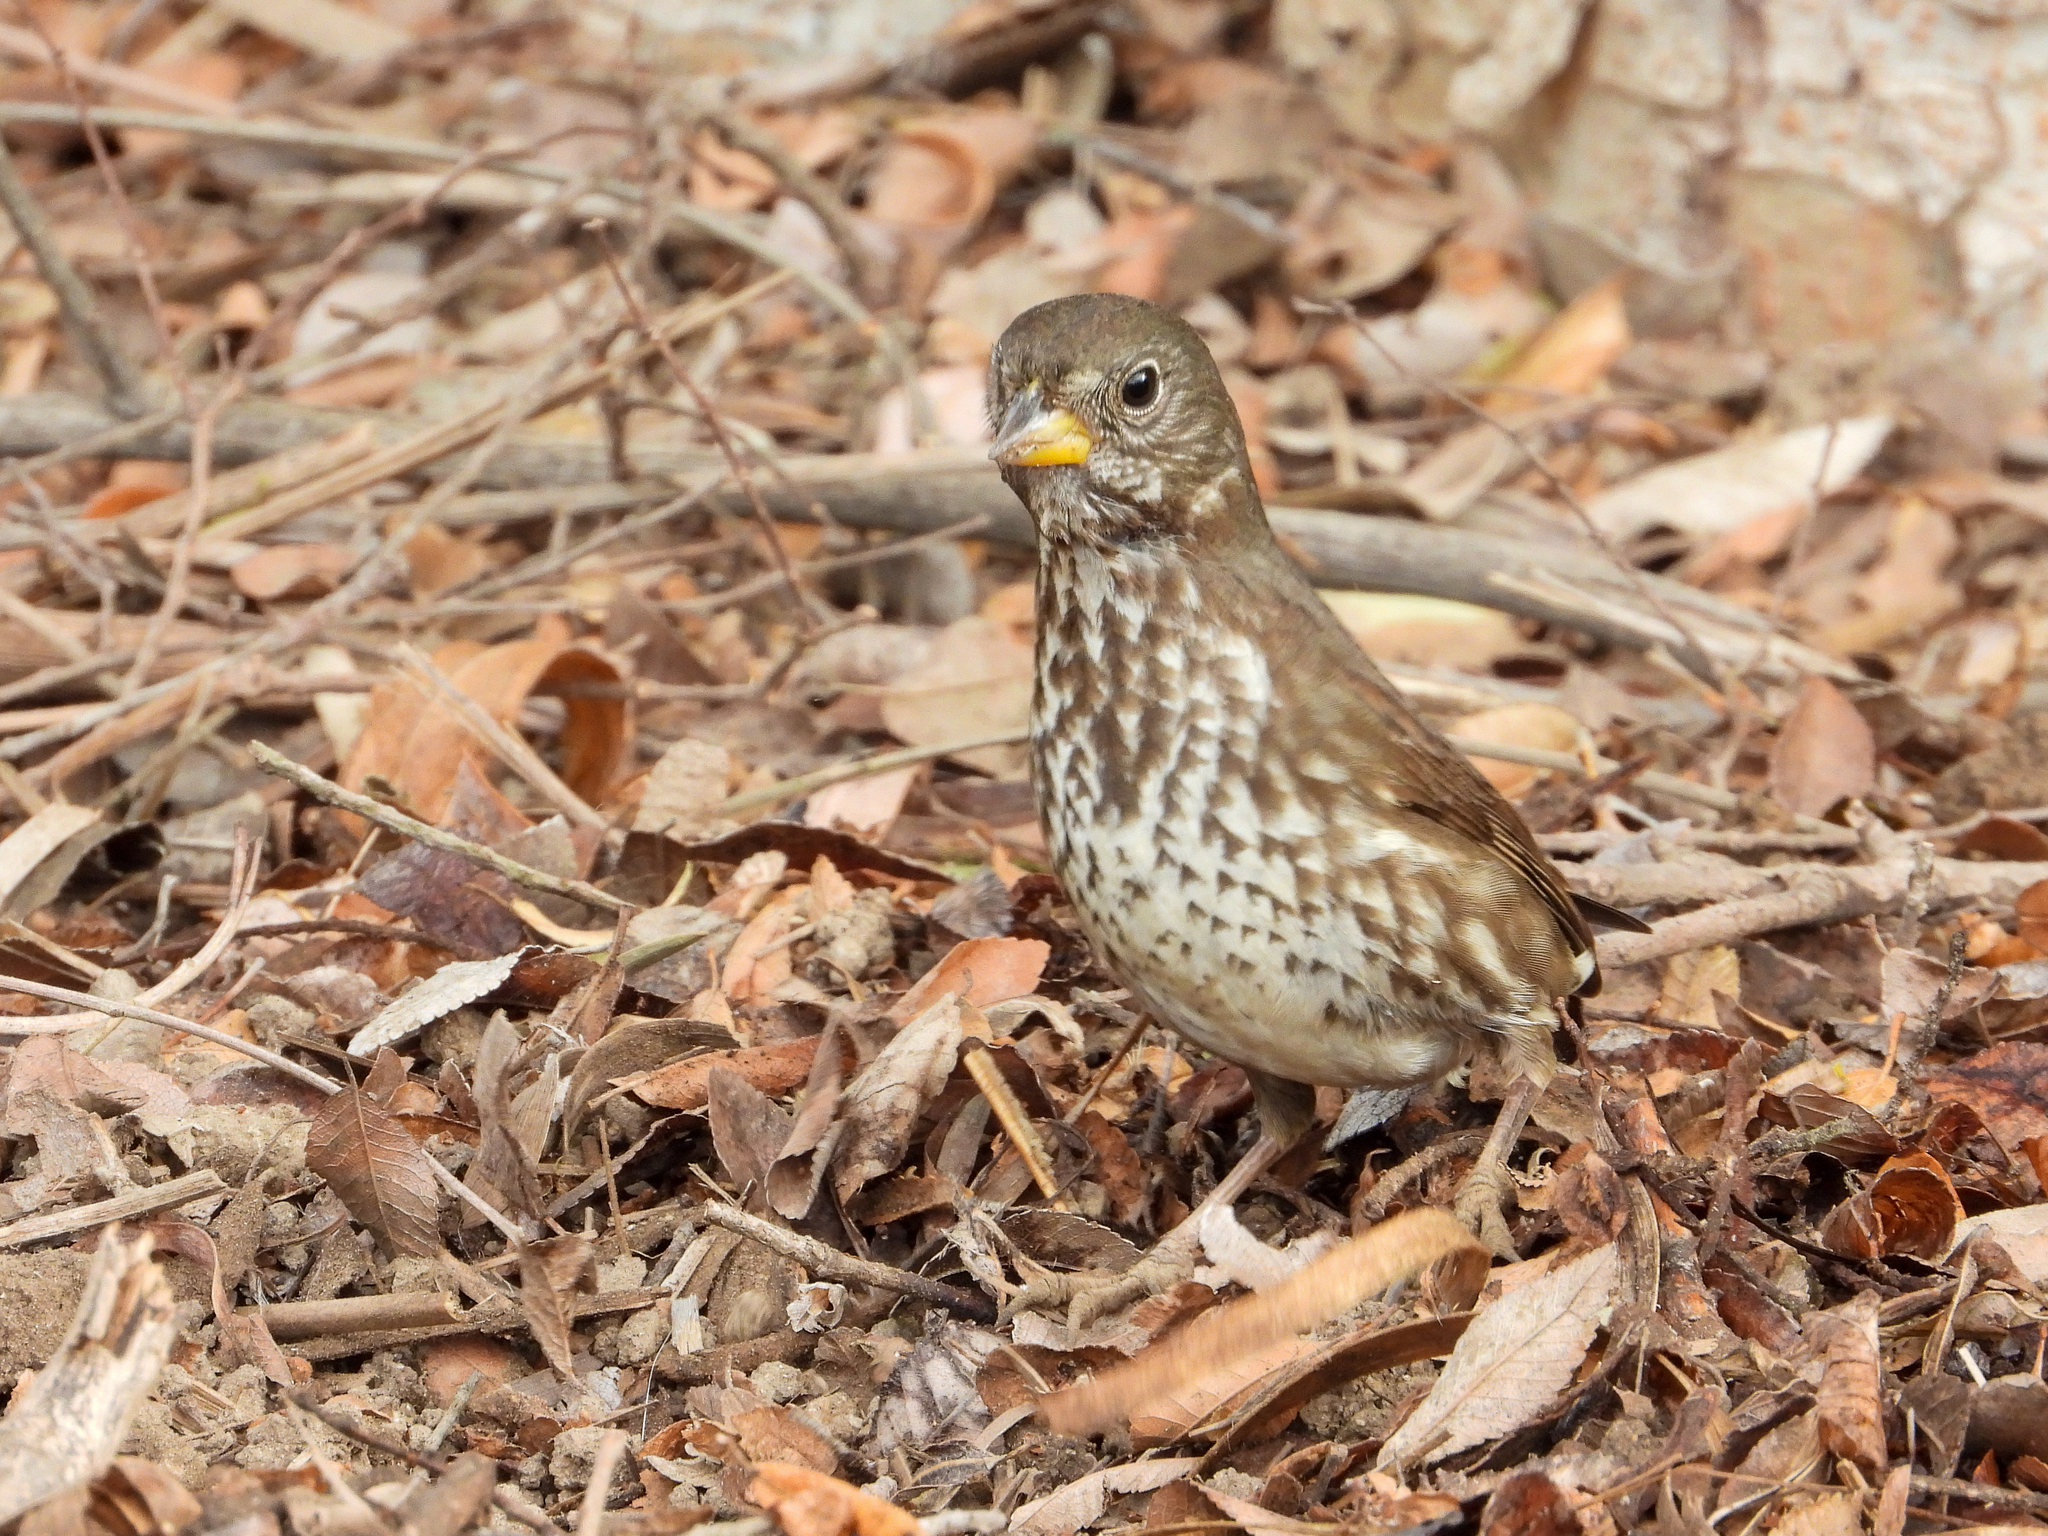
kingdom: Animalia
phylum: Chordata
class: Aves
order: Passeriformes
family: Passerellidae
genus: Passerella
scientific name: Passerella iliaca
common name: Fox sparrow
